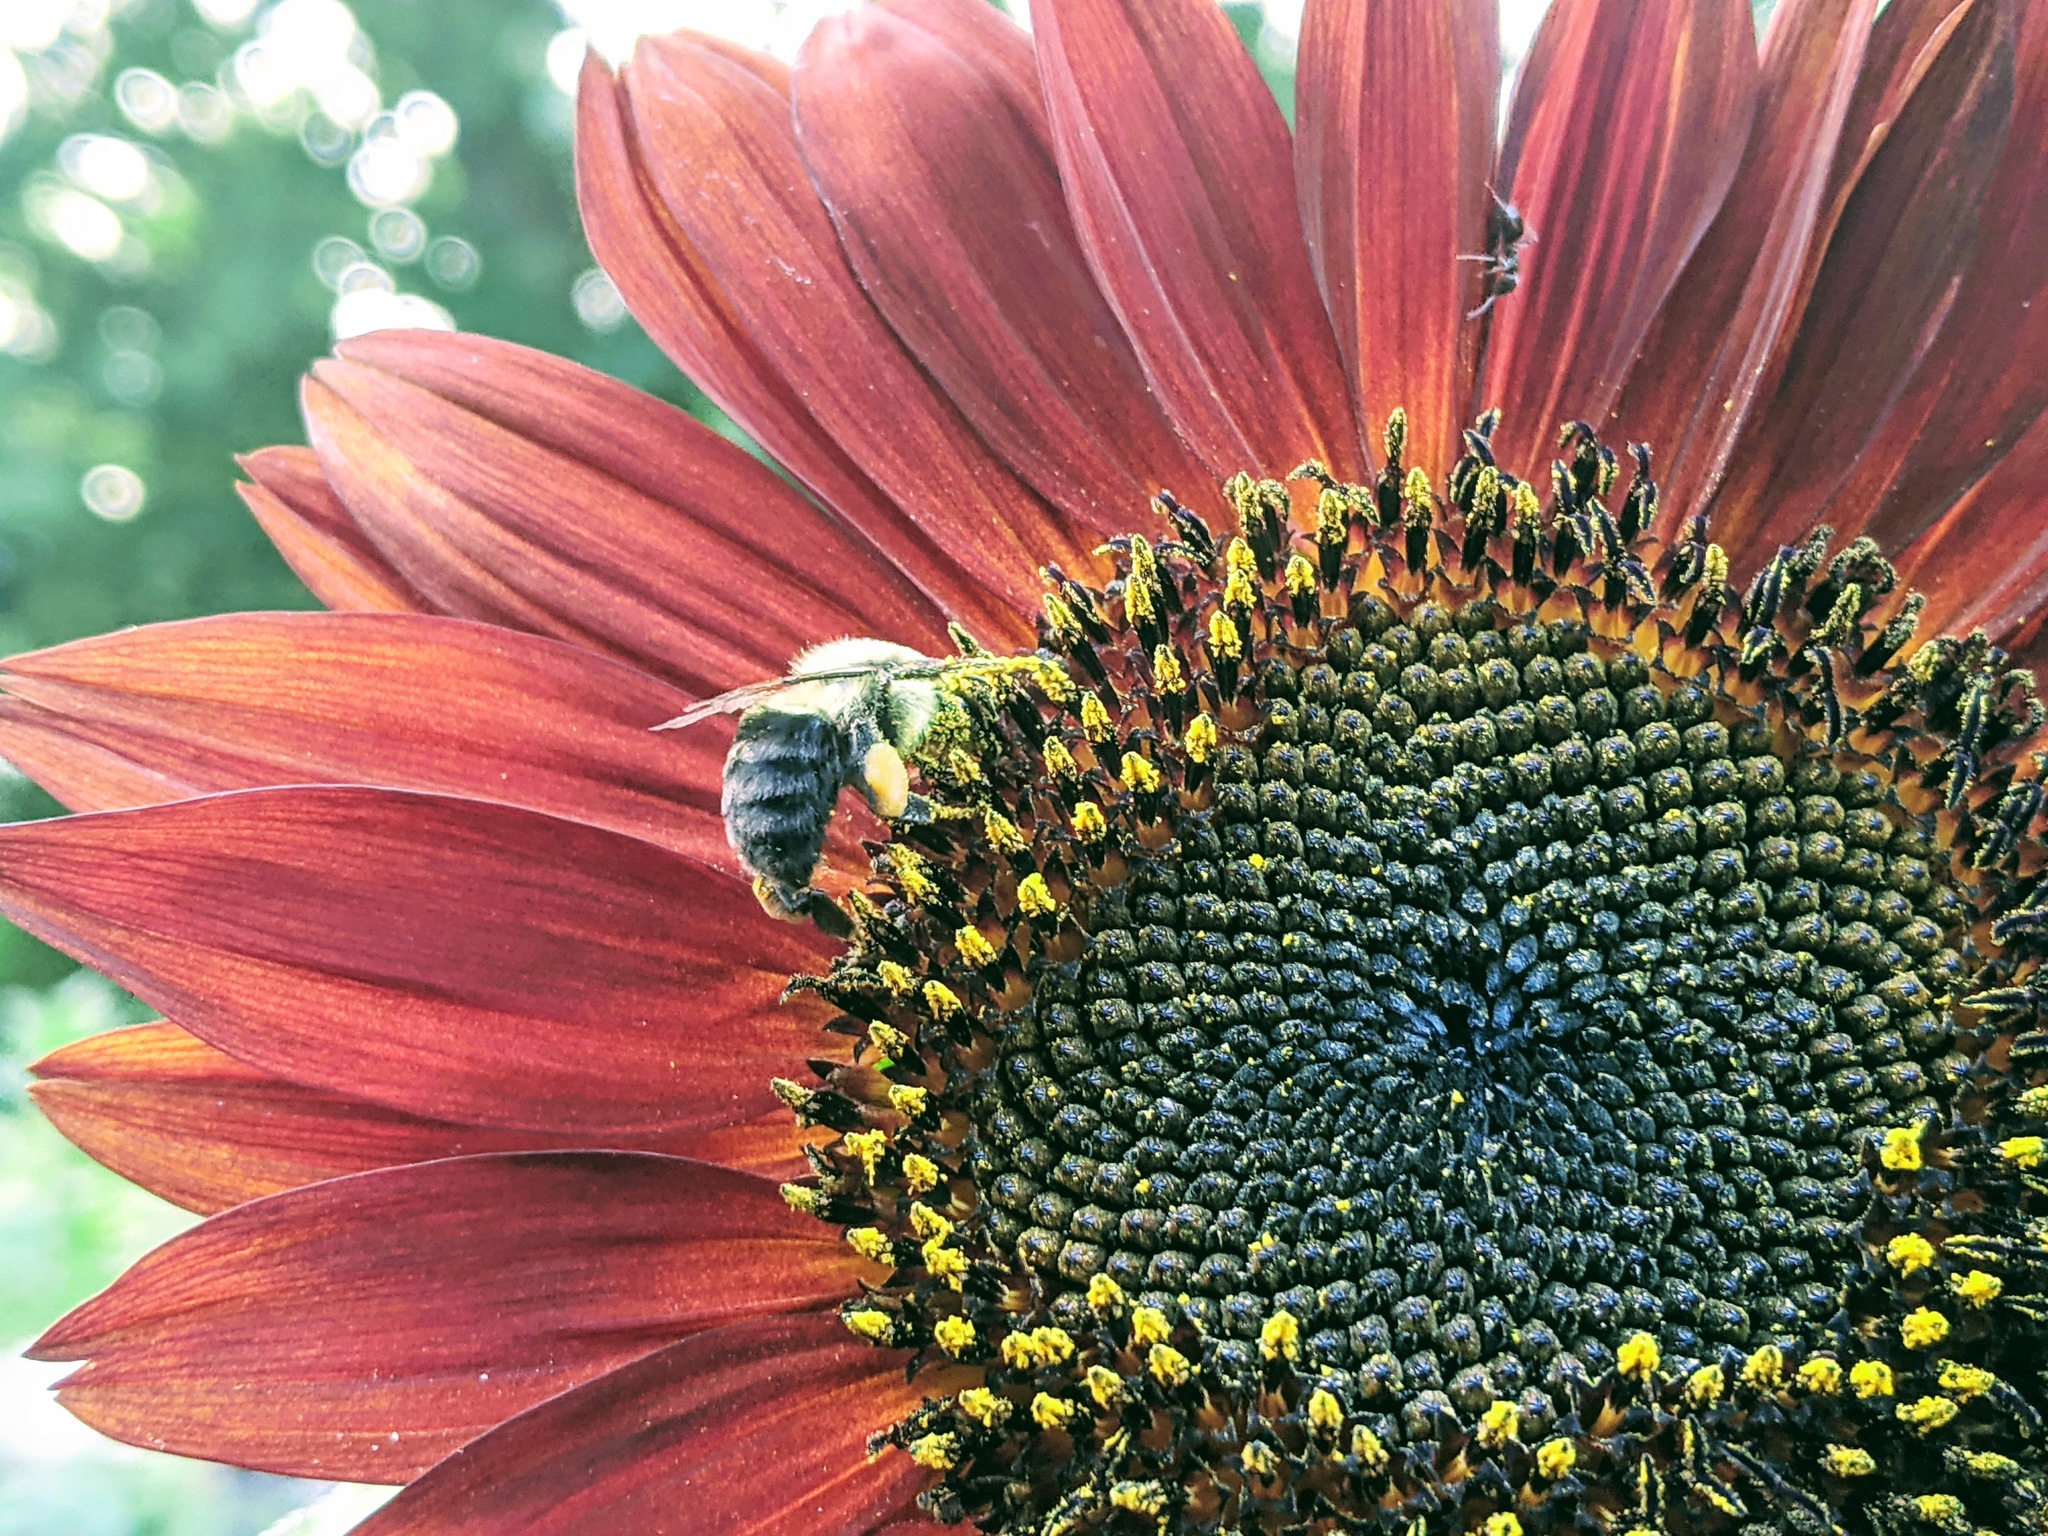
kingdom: Animalia
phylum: Arthropoda
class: Insecta
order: Hymenoptera
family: Apidae
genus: Bombus
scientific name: Bombus impatiens
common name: Common eastern bumble bee
